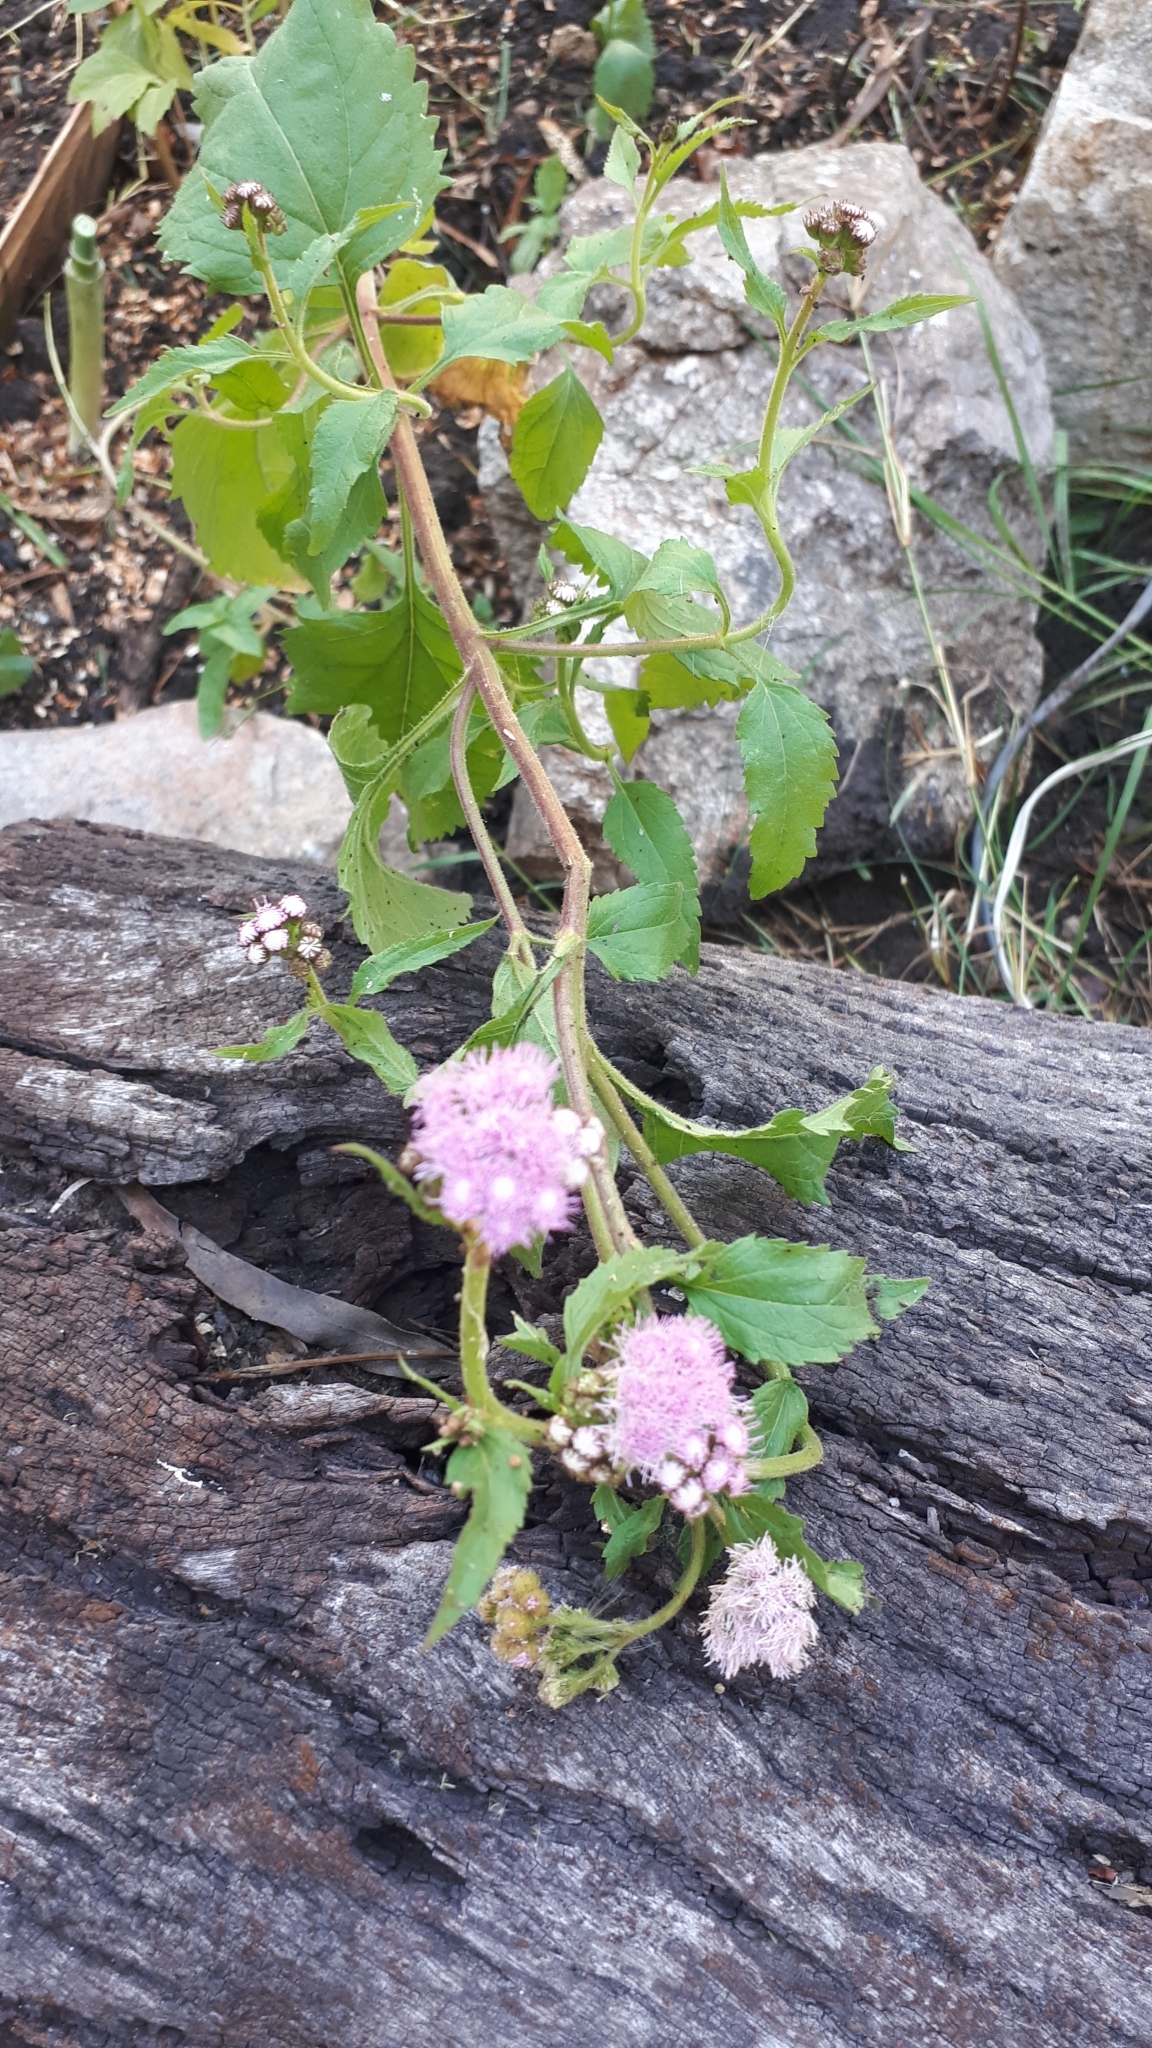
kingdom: Plantae
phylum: Tracheophyta
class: Magnoliopsida
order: Asterales
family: Asteraceae
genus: Chromolaena
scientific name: Chromolaena hirsuta
